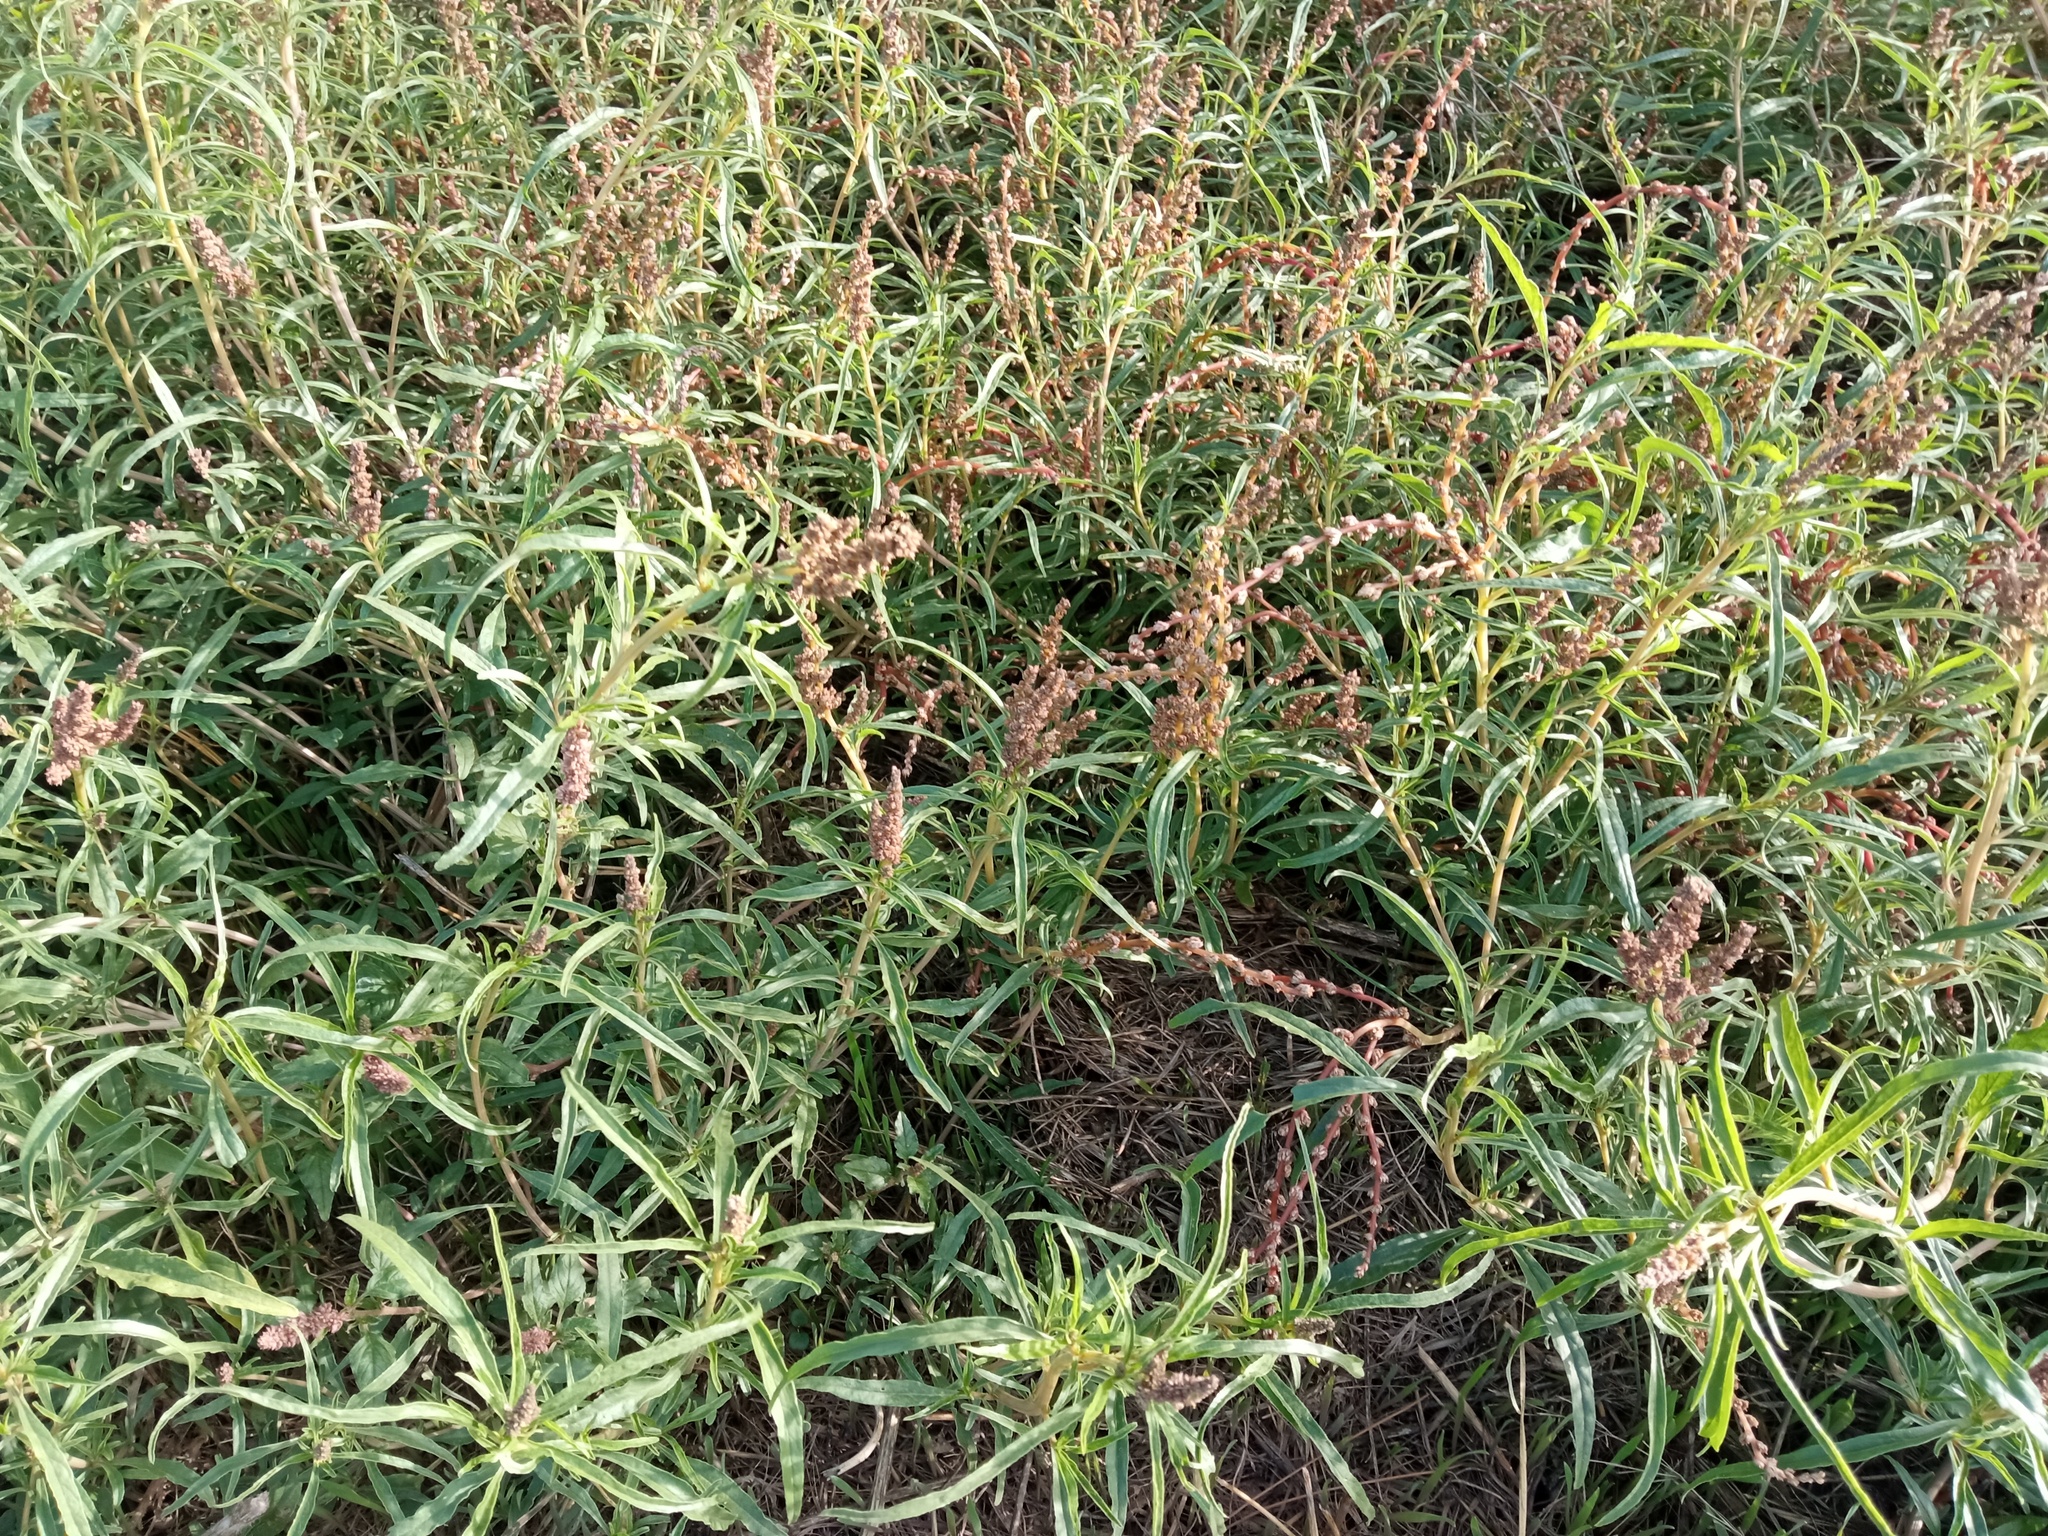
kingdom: Plantae
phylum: Tracheophyta
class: Magnoliopsida
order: Caryophyllales
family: Amaranthaceae
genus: Amaranthus
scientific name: Amaranthus muricatus
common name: African amaranth
